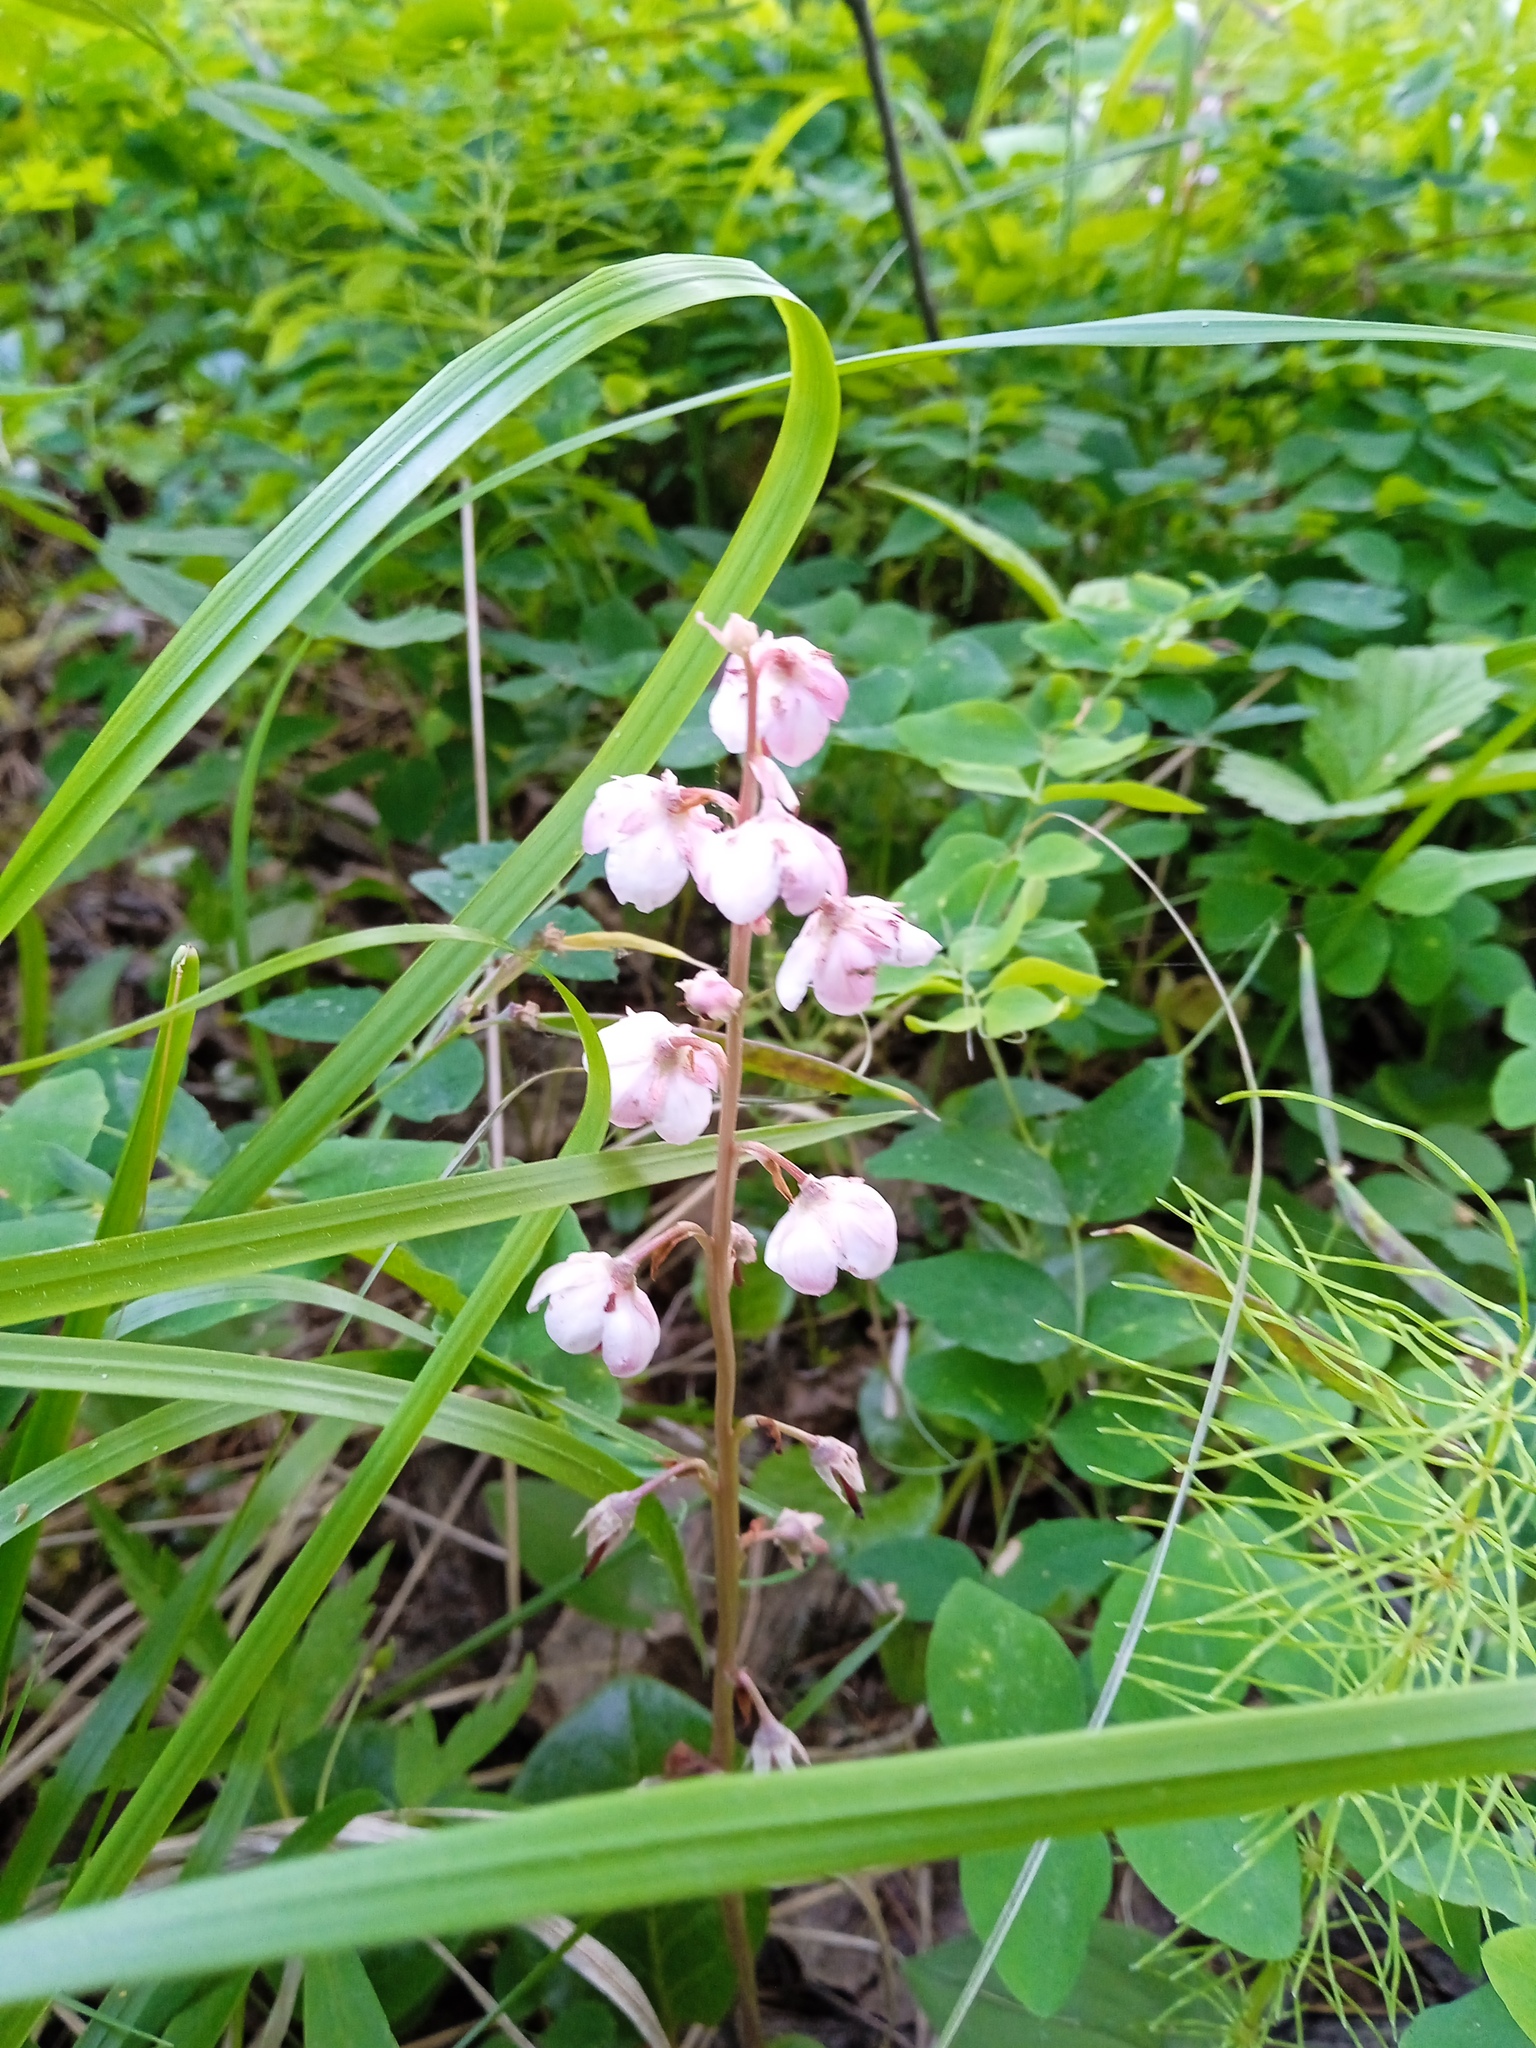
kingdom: Plantae
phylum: Tracheophyta
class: Magnoliopsida
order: Ericales
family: Ericaceae
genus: Pyrola
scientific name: Pyrola asarifolia
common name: Bog wintergreen
